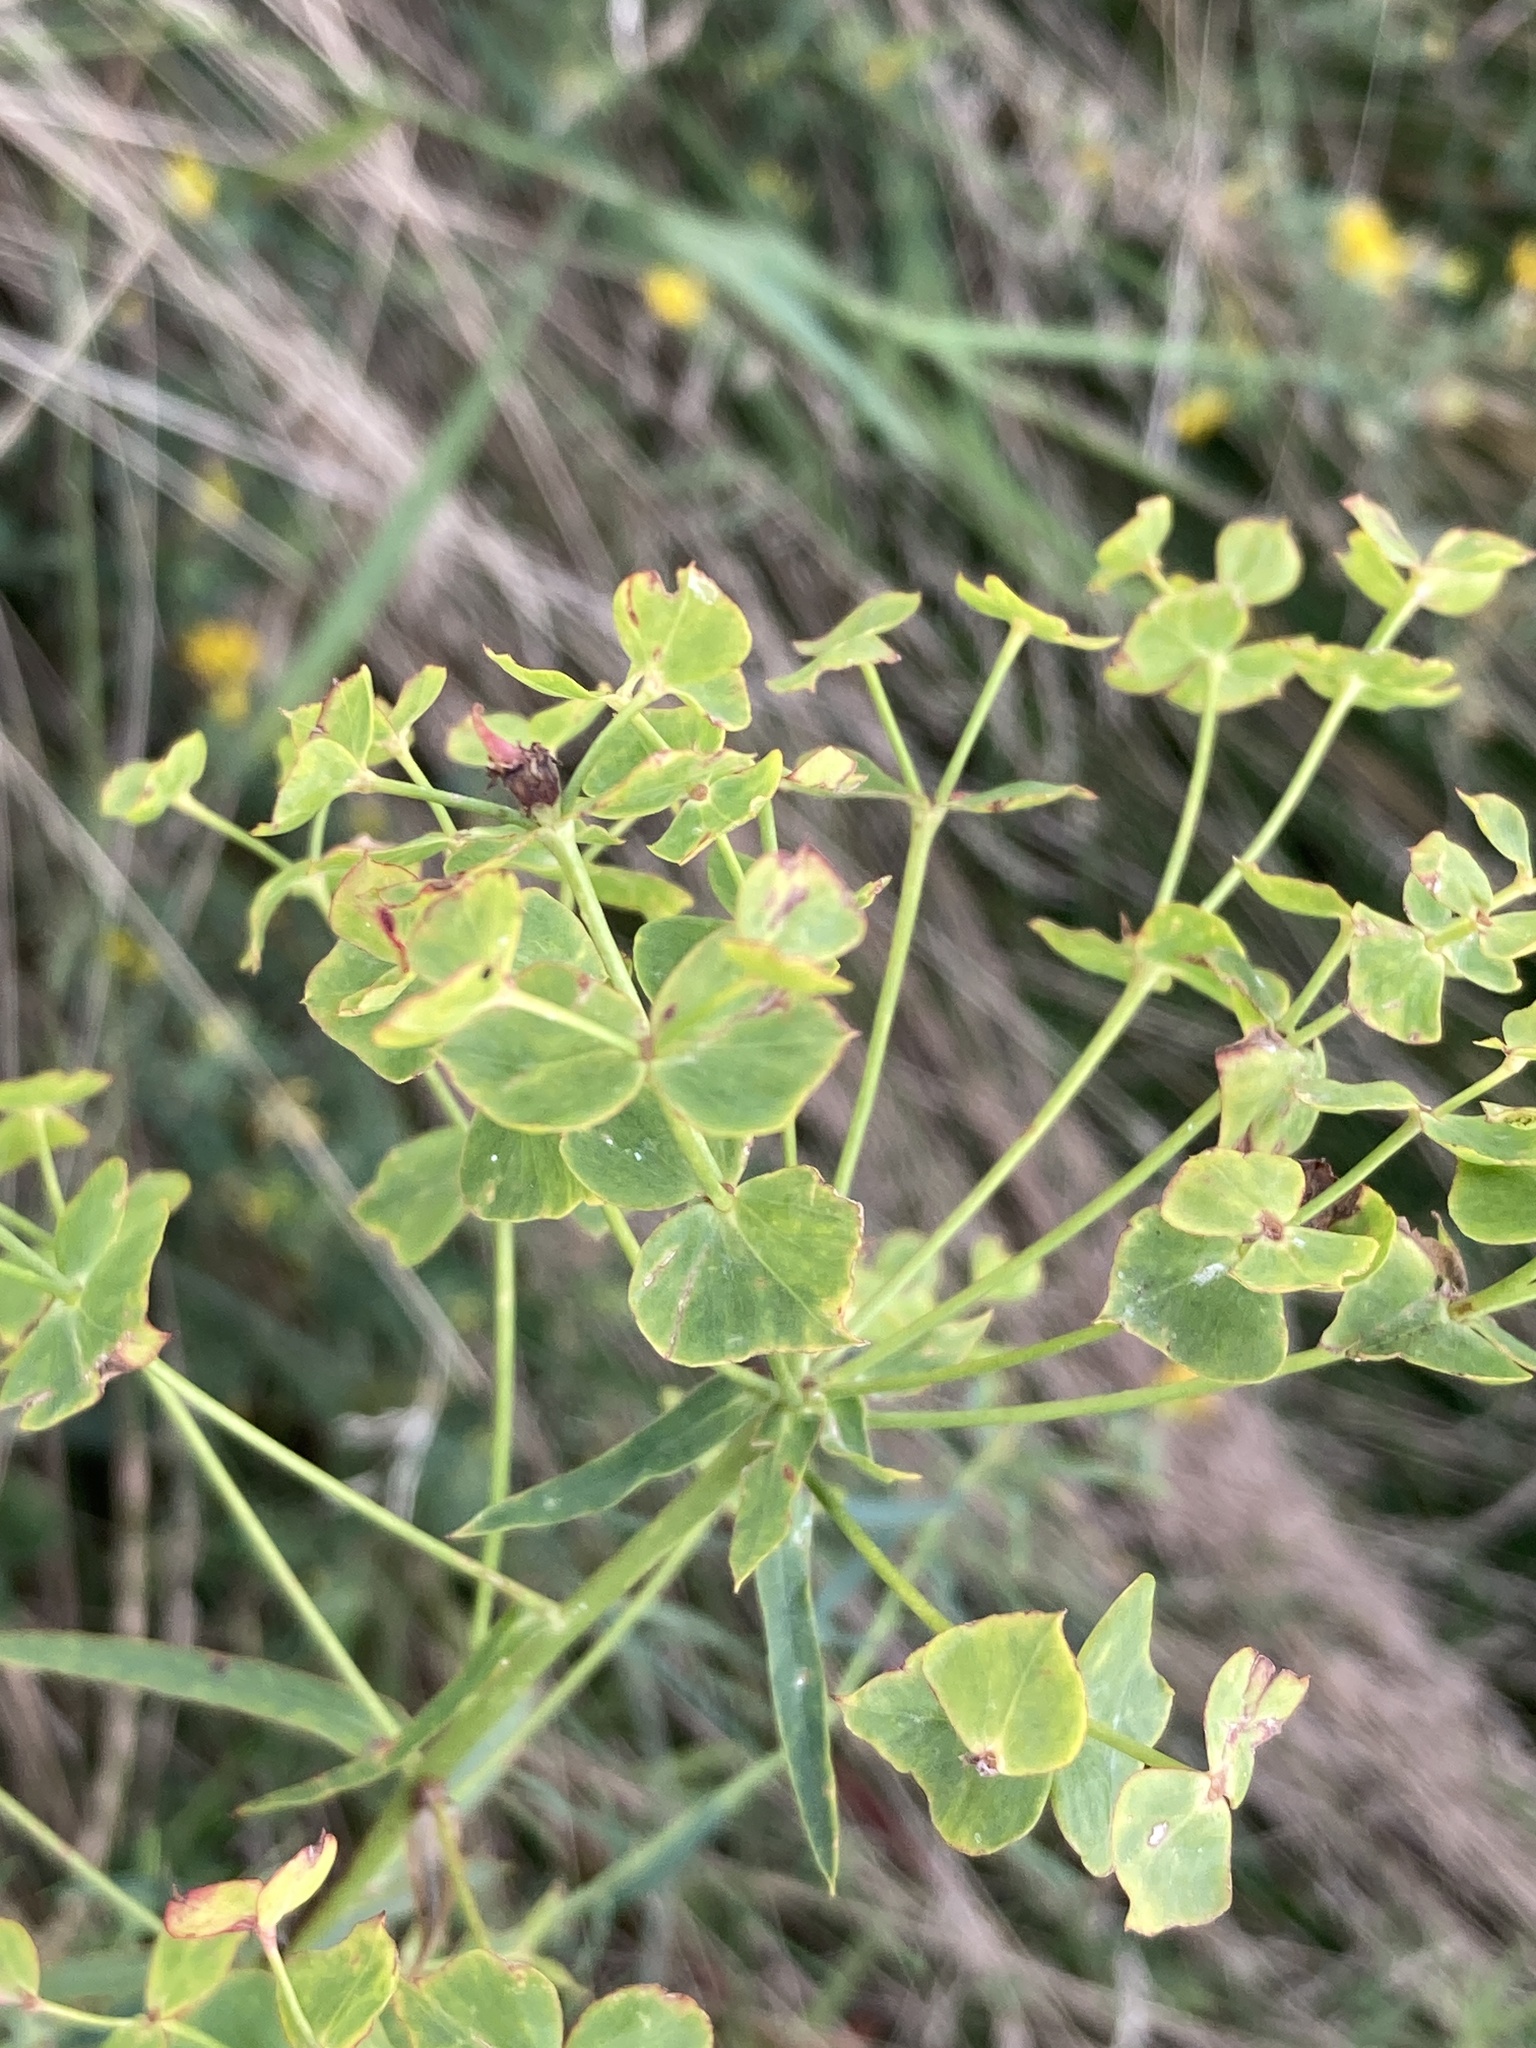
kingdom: Plantae
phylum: Tracheophyta
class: Magnoliopsida
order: Malpighiales
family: Euphorbiaceae
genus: Euphorbia
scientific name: Euphorbia virgata
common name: Leafy spurge
